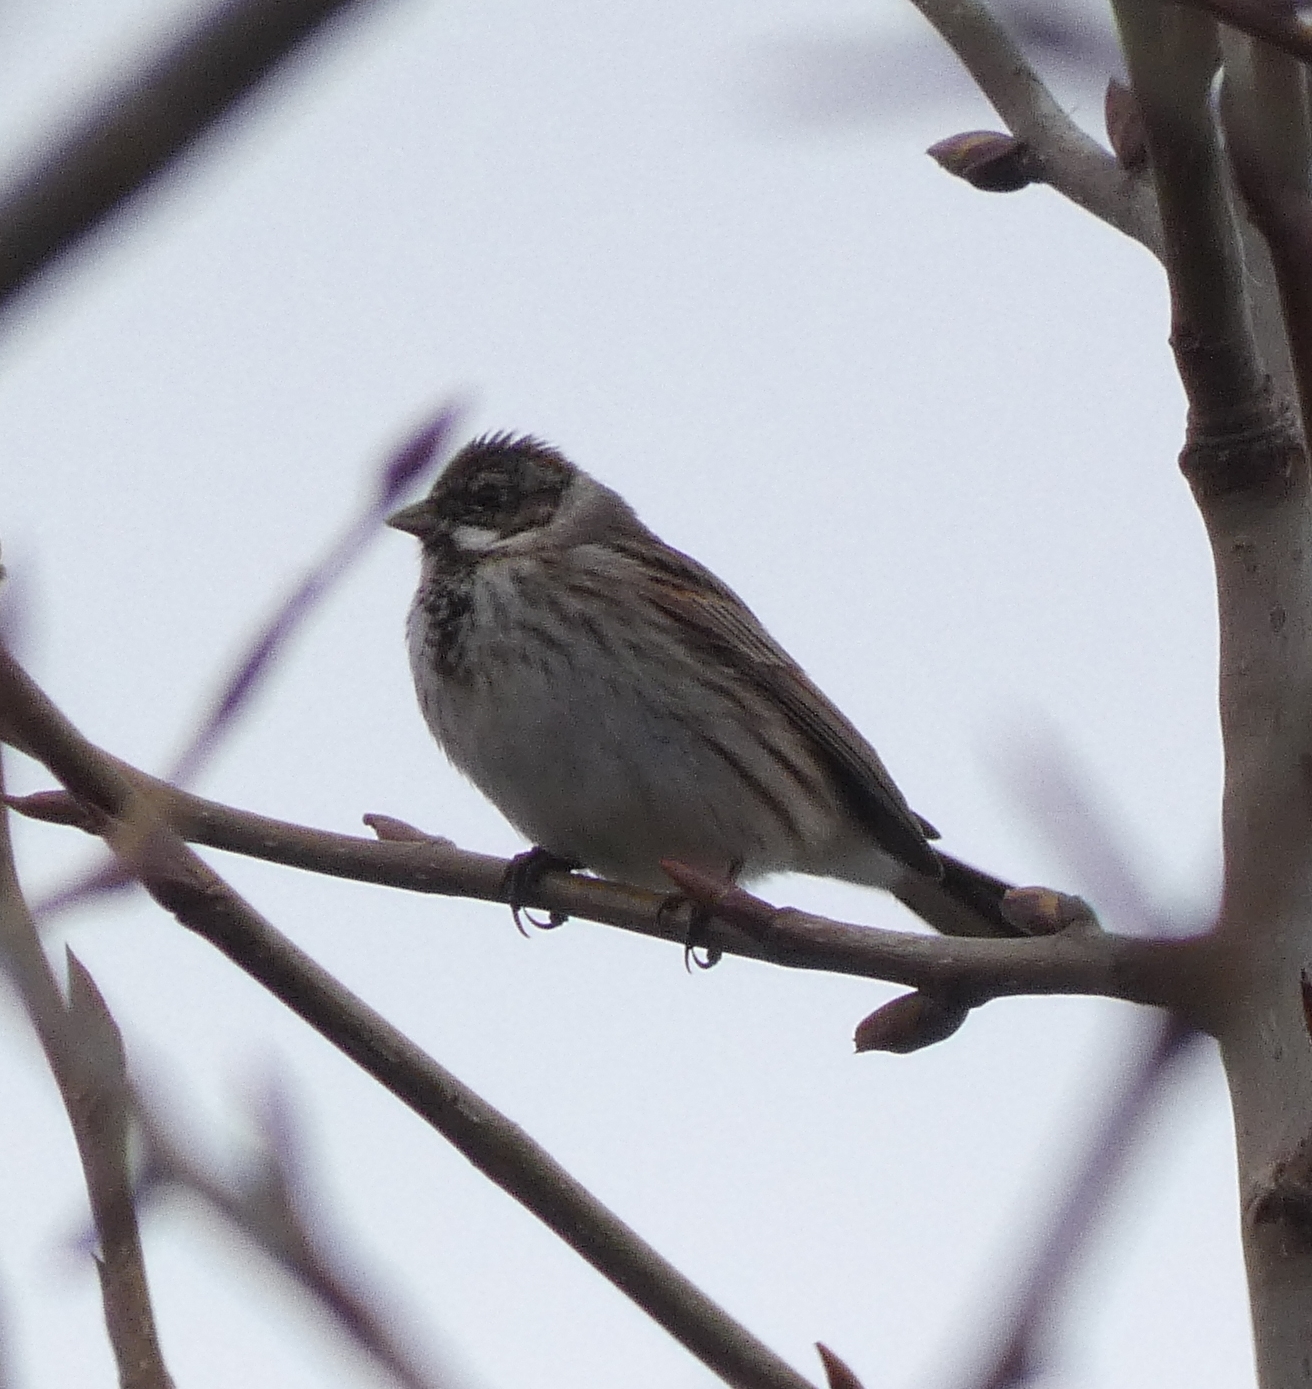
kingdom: Animalia
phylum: Chordata
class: Aves
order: Passeriformes
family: Emberizidae
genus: Emberiza
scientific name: Emberiza schoeniclus
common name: Reed bunting
